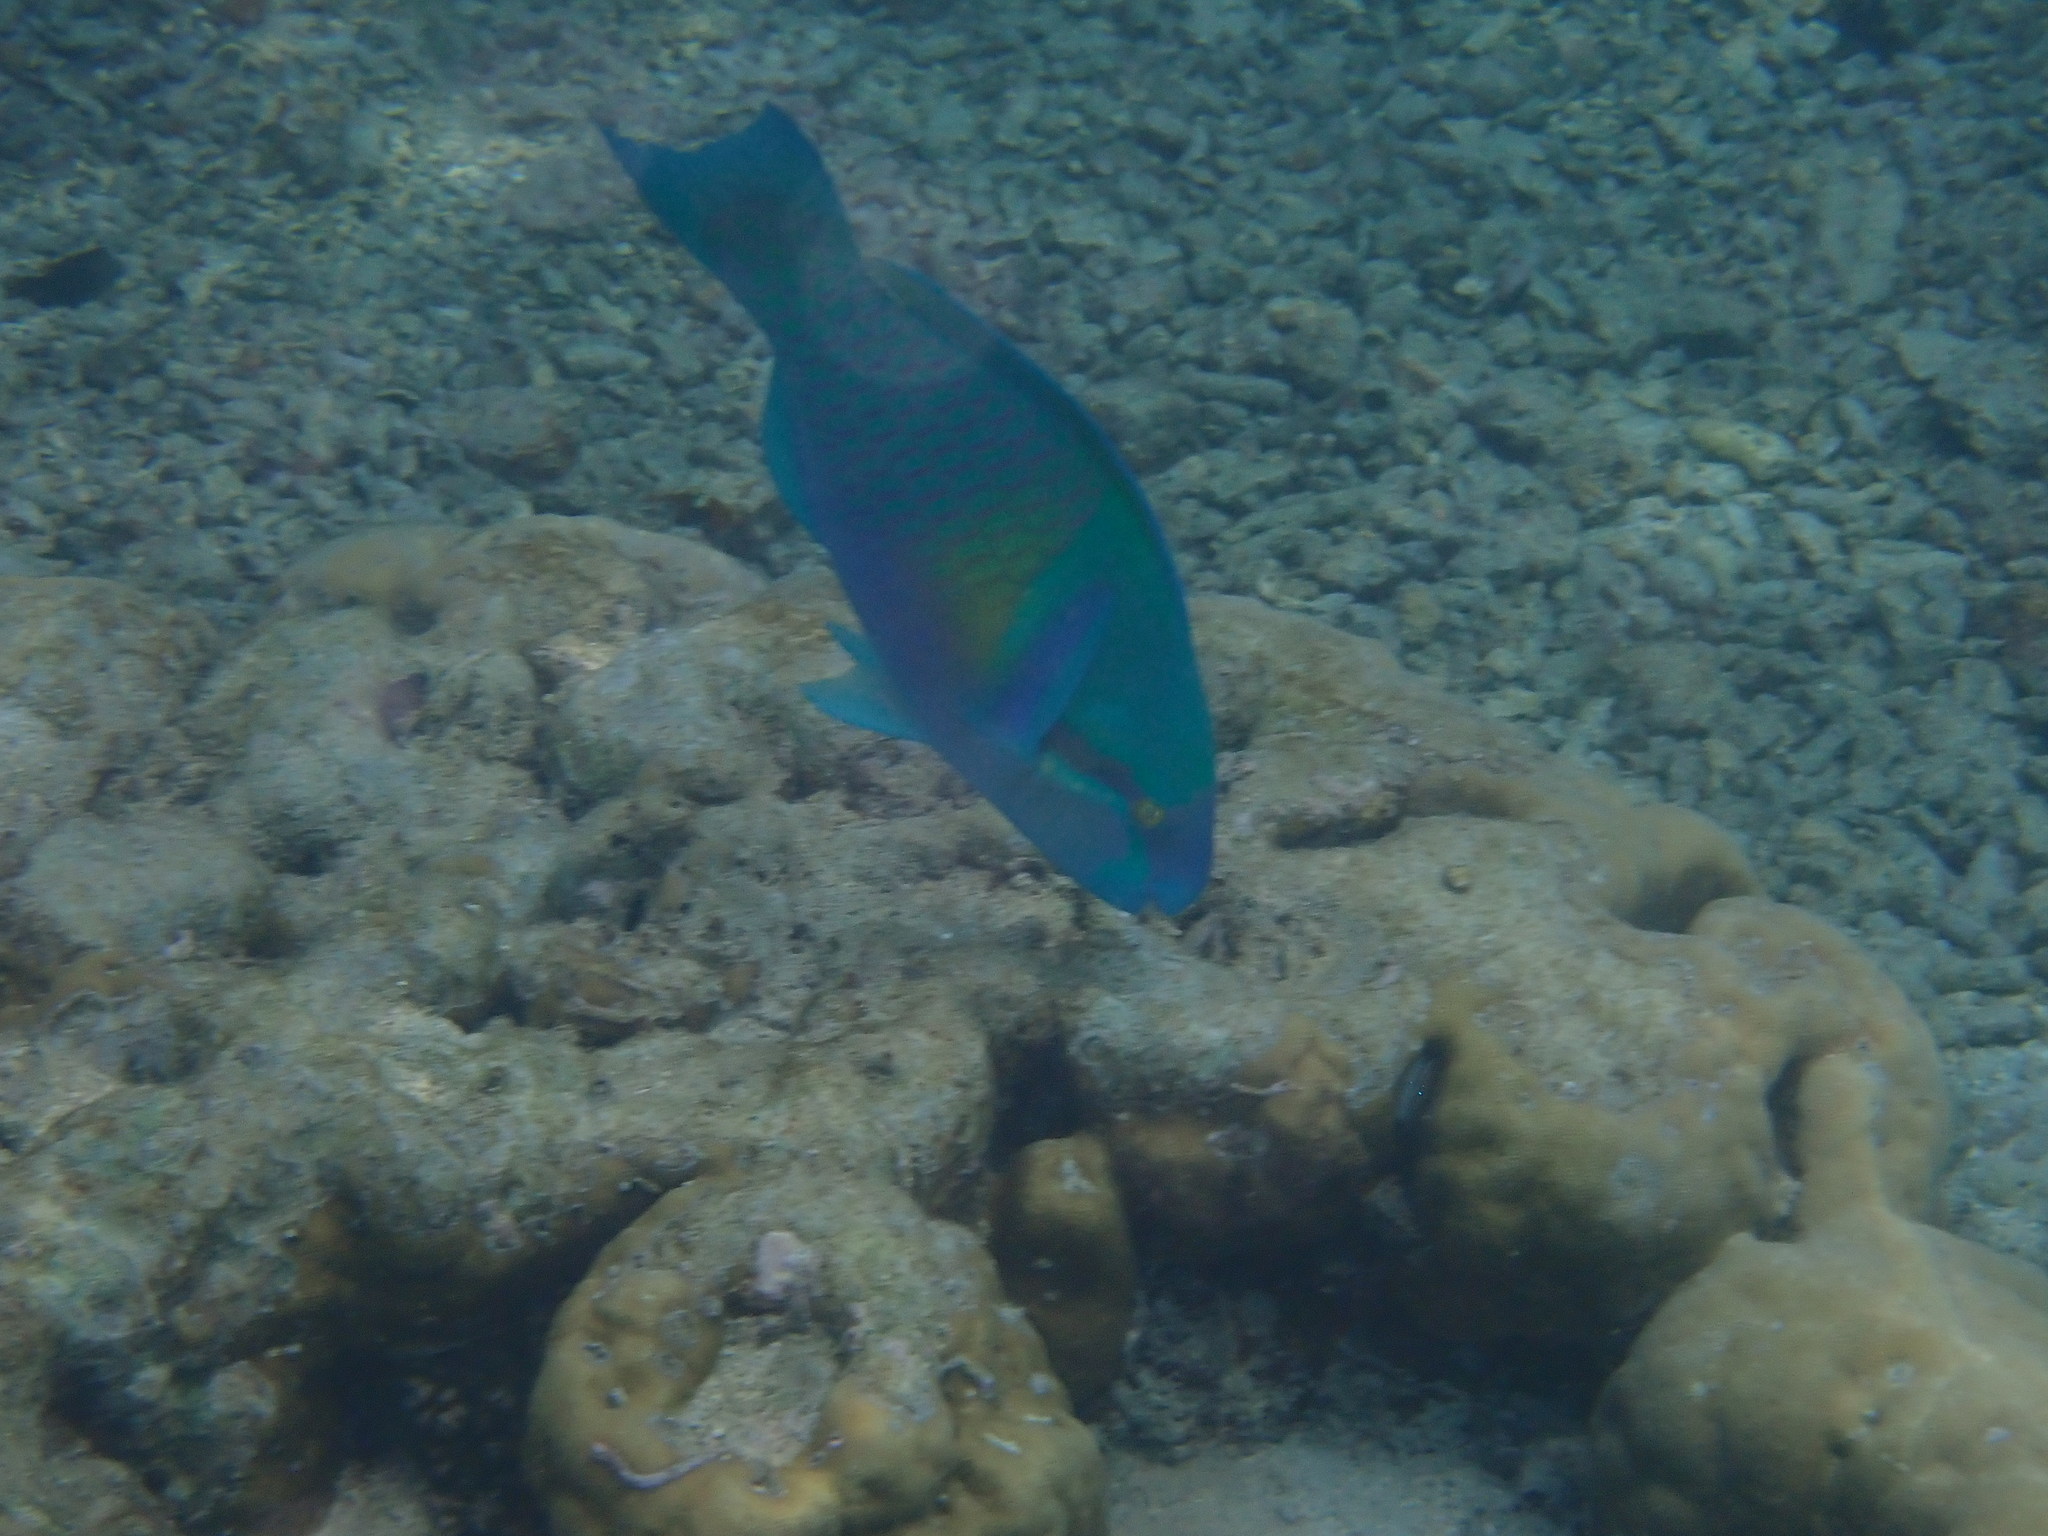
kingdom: Animalia
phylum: Chordata
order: Perciformes
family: Scaridae
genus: Scarus
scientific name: Scarus dimidiatus
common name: Yellowbarred parrotfish
